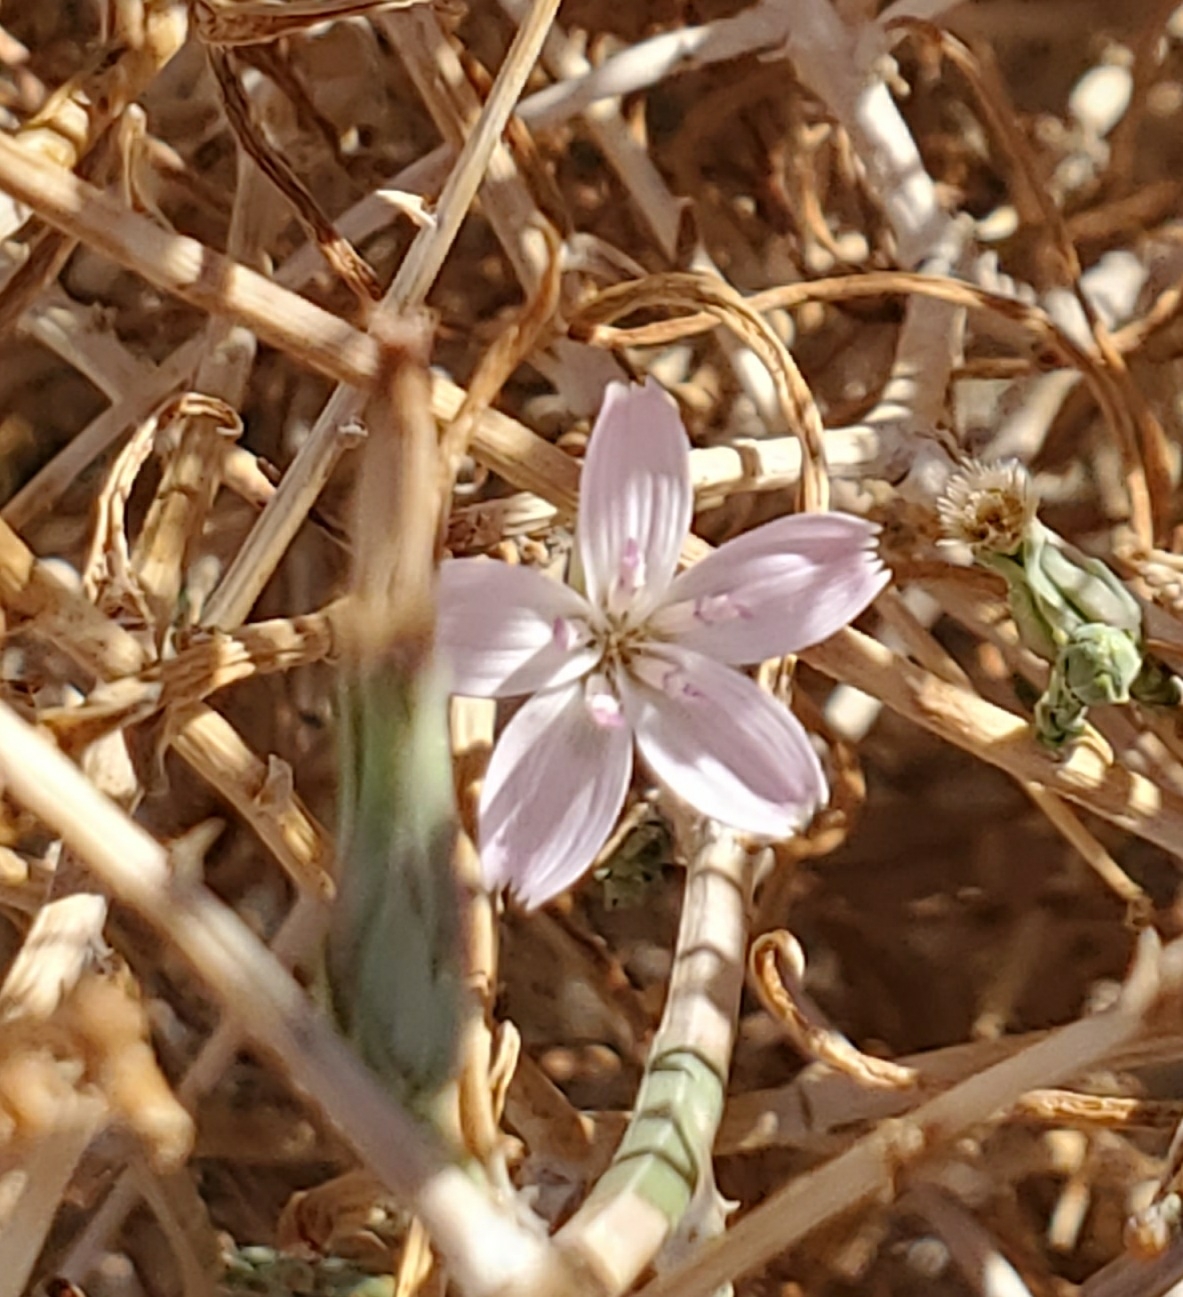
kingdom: Plantae
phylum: Tracheophyta
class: Magnoliopsida
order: Asterales
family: Asteraceae
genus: Stephanomeria
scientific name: Stephanomeria pauciflora
